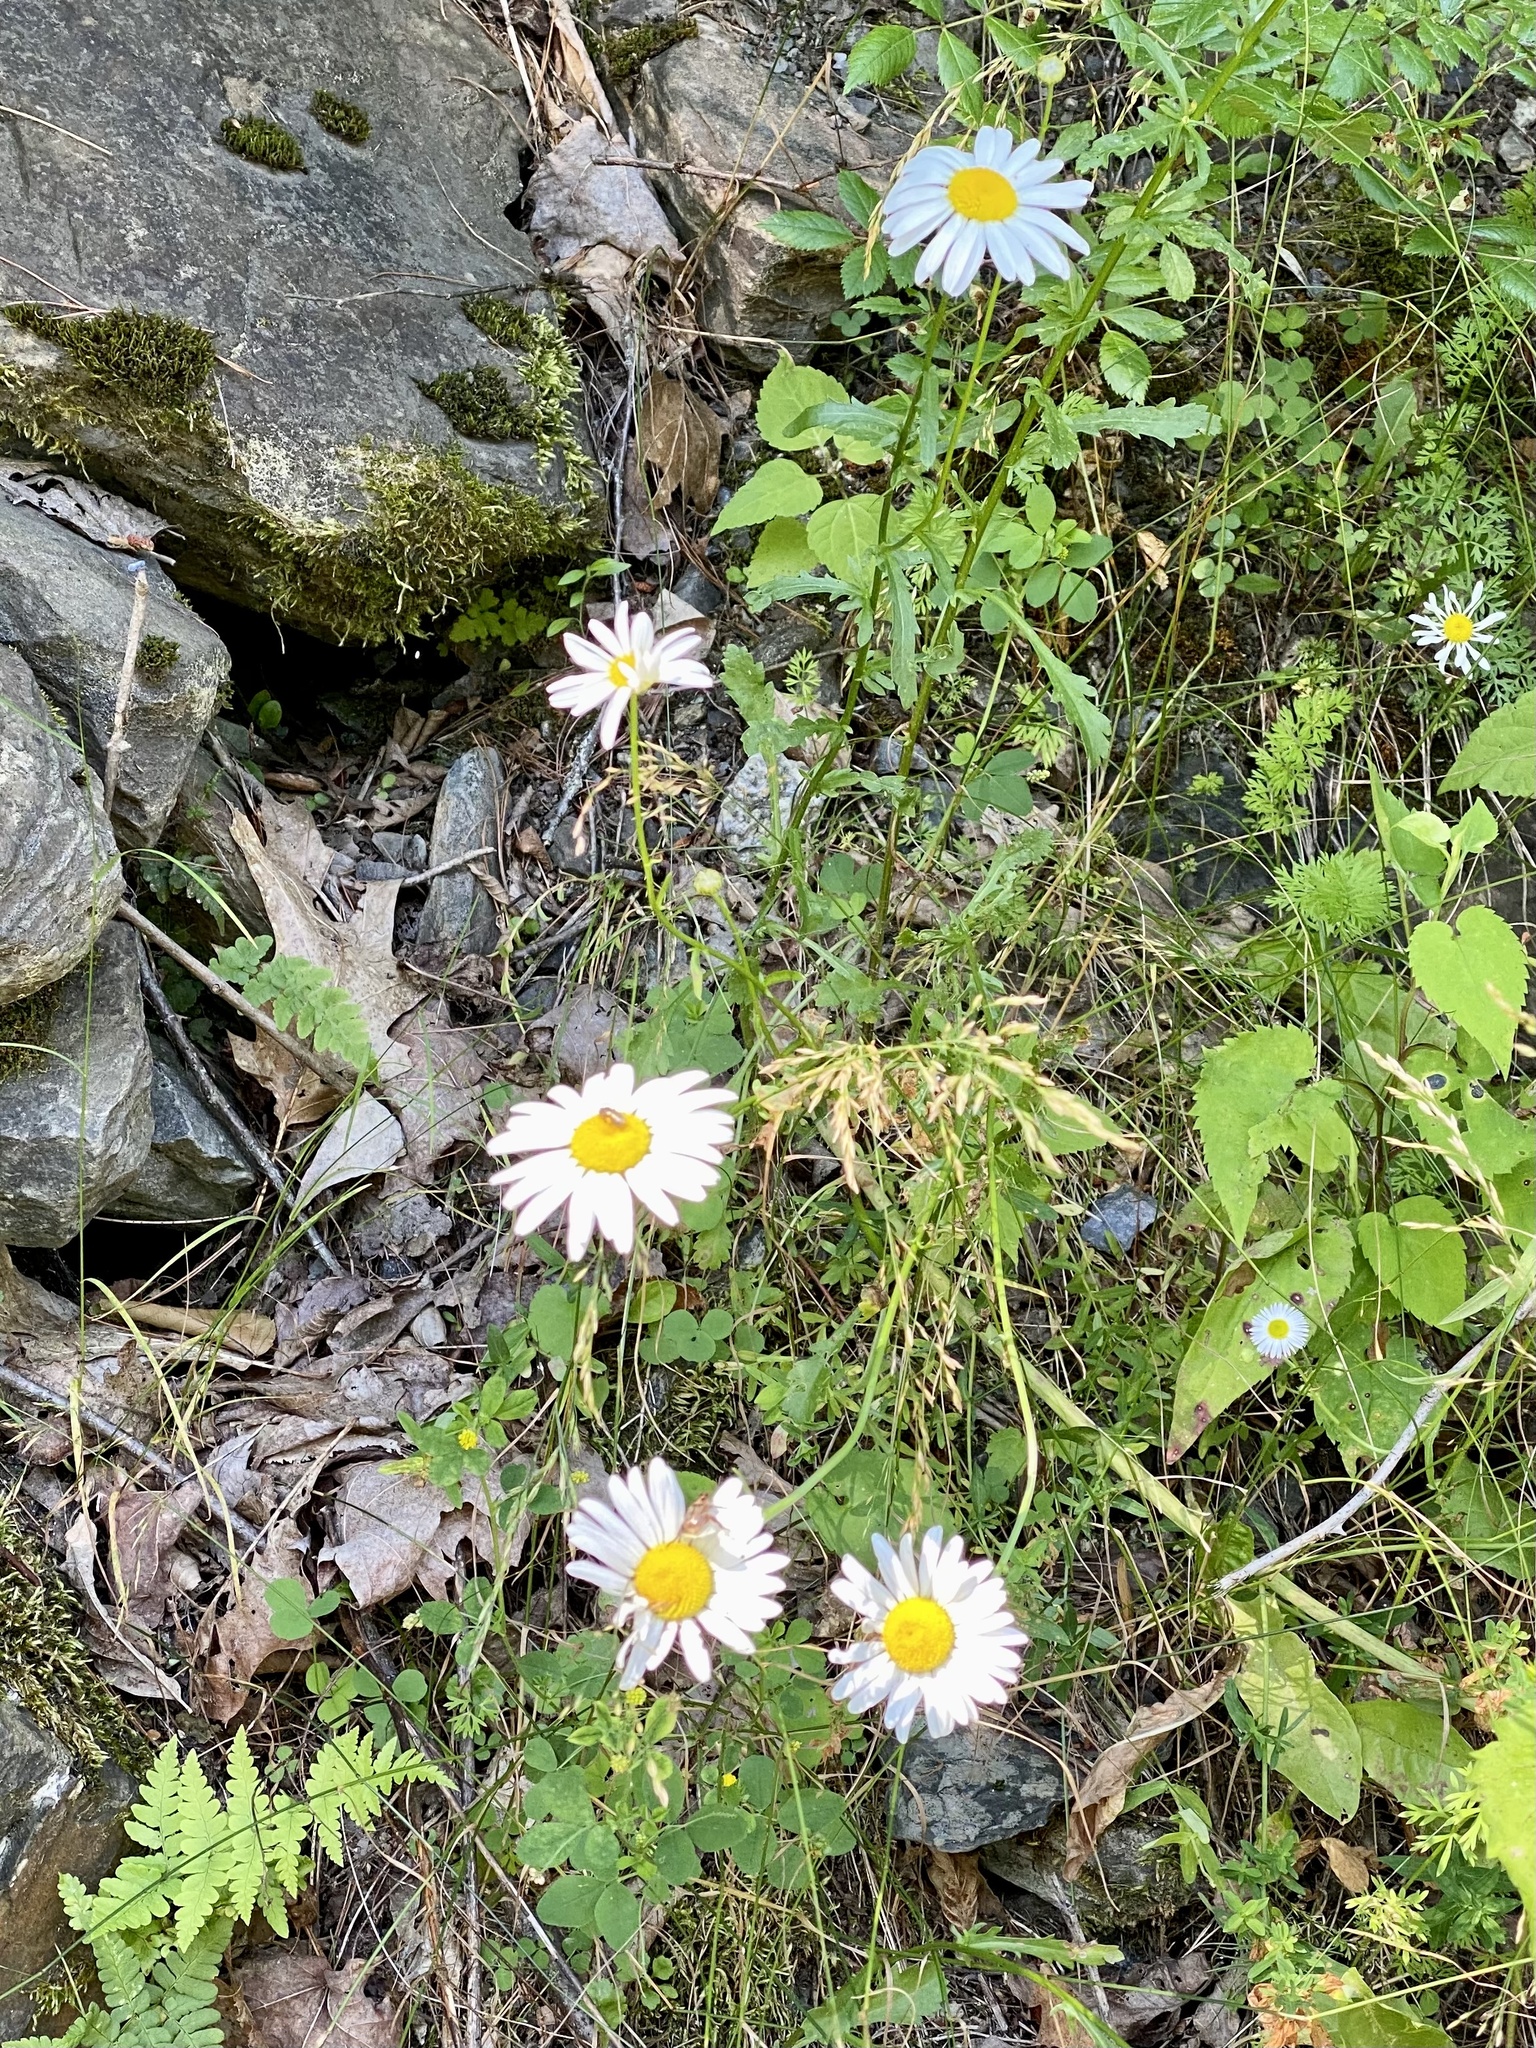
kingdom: Plantae
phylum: Tracheophyta
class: Magnoliopsida
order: Asterales
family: Asteraceae
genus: Leucanthemum
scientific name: Leucanthemum vulgare
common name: Oxeye daisy
